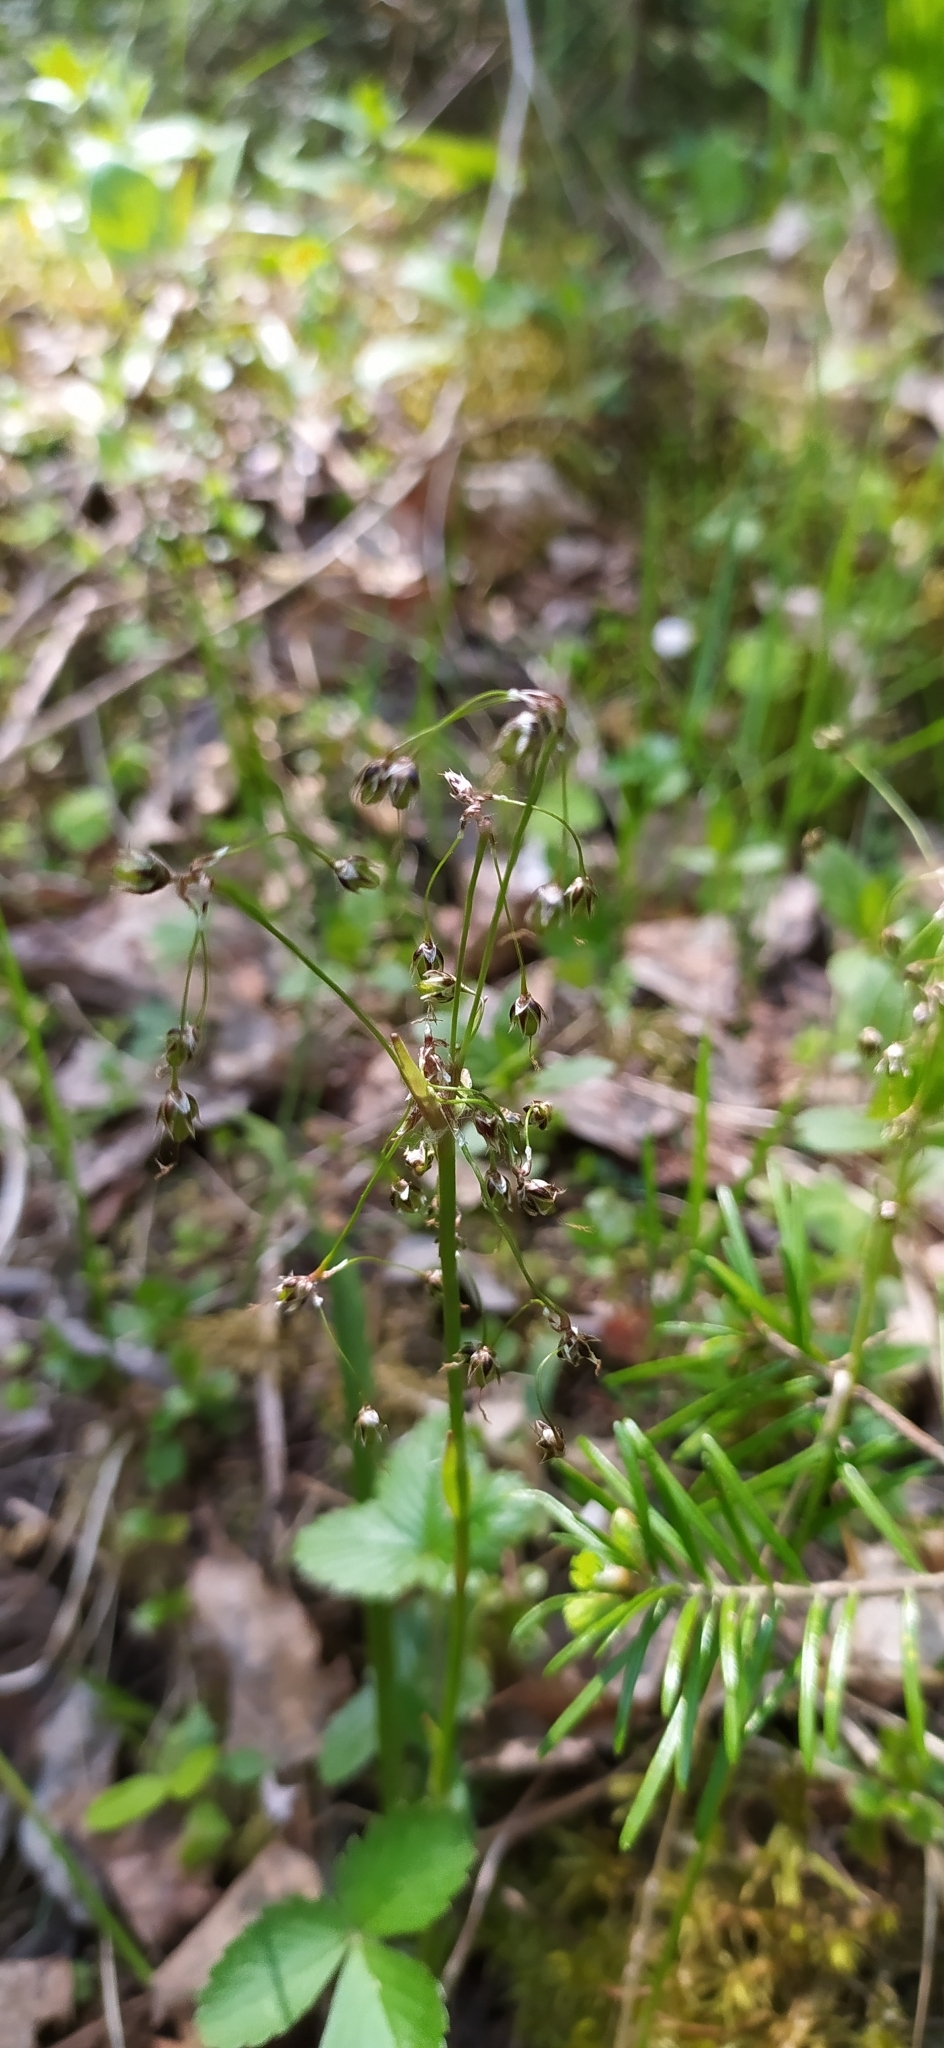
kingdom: Plantae
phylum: Tracheophyta
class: Liliopsida
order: Poales
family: Juncaceae
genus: Luzula
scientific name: Luzula pilosa
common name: Hairy wood-rush
